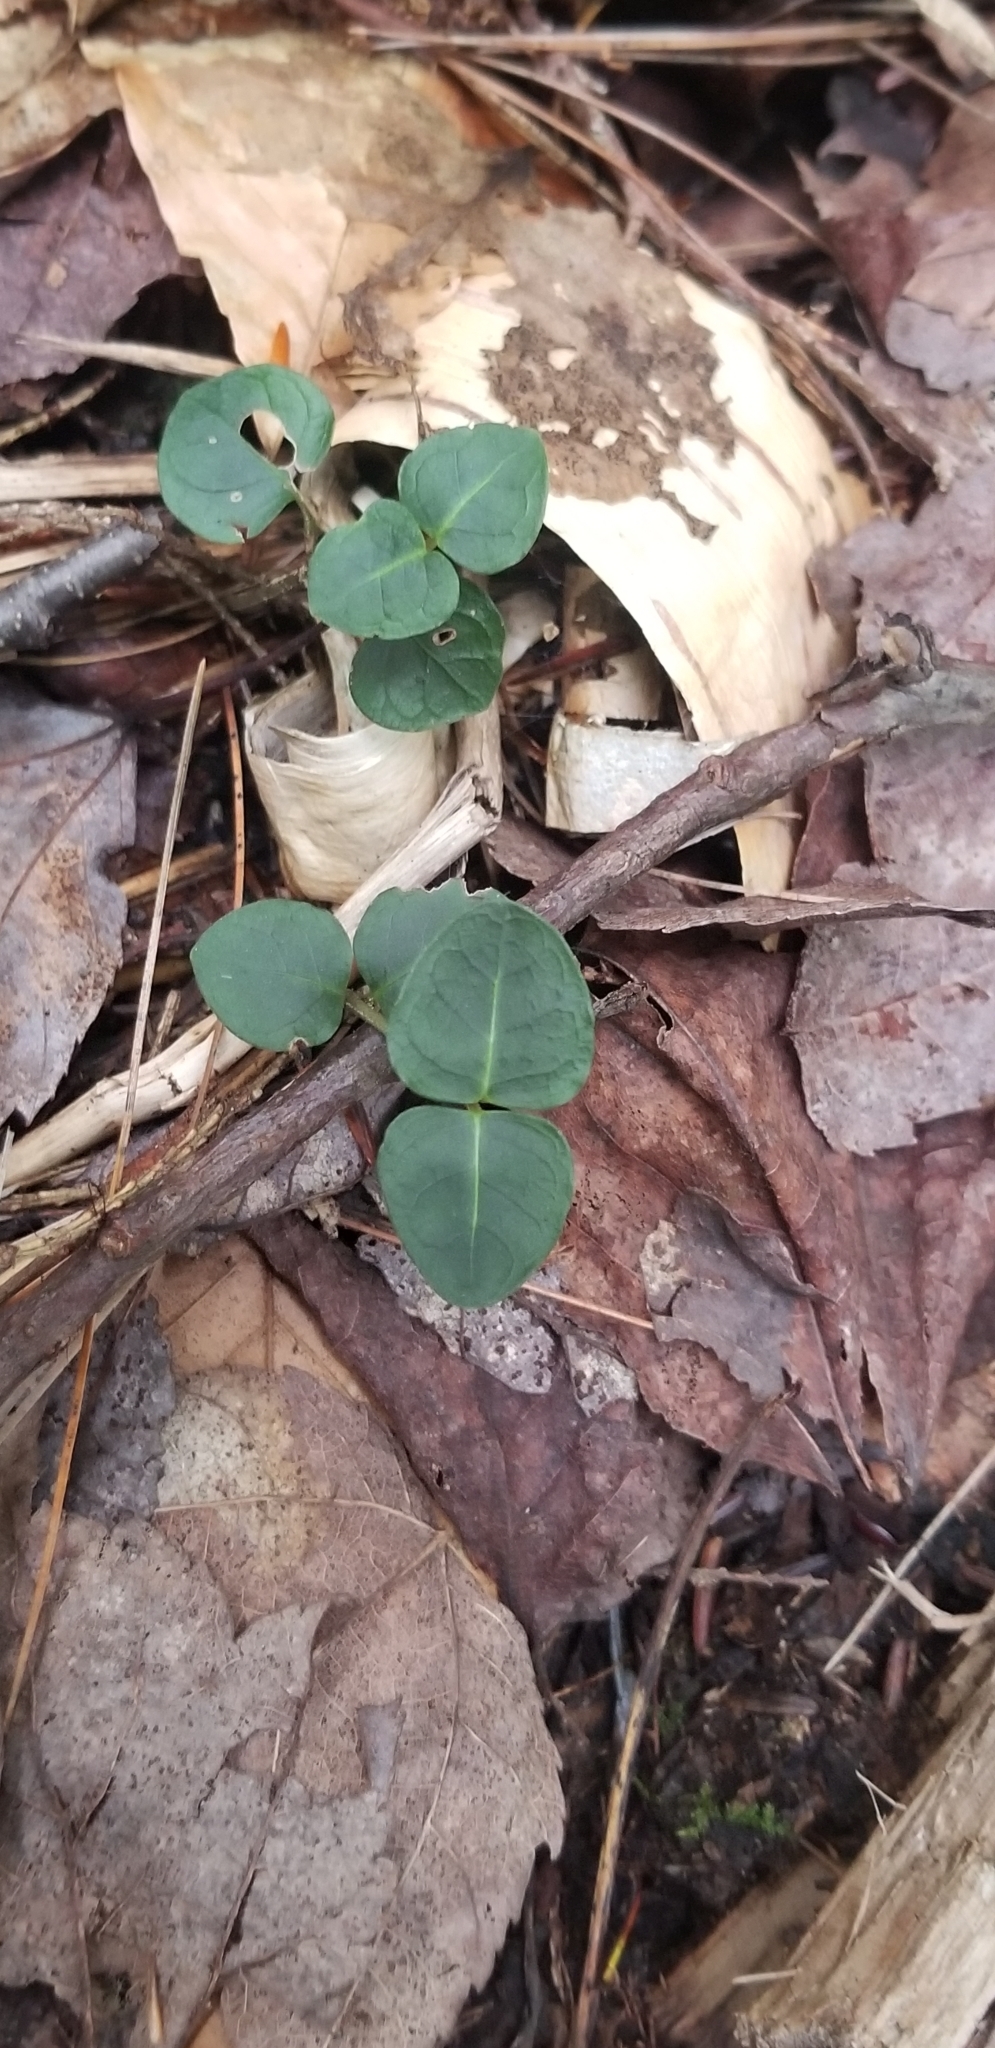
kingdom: Plantae
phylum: Tracheophyta
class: Magnoliopsida
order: Gentianales
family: Rubiaceae
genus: Mitchella
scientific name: Mitchella repens
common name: Partridge-berry
